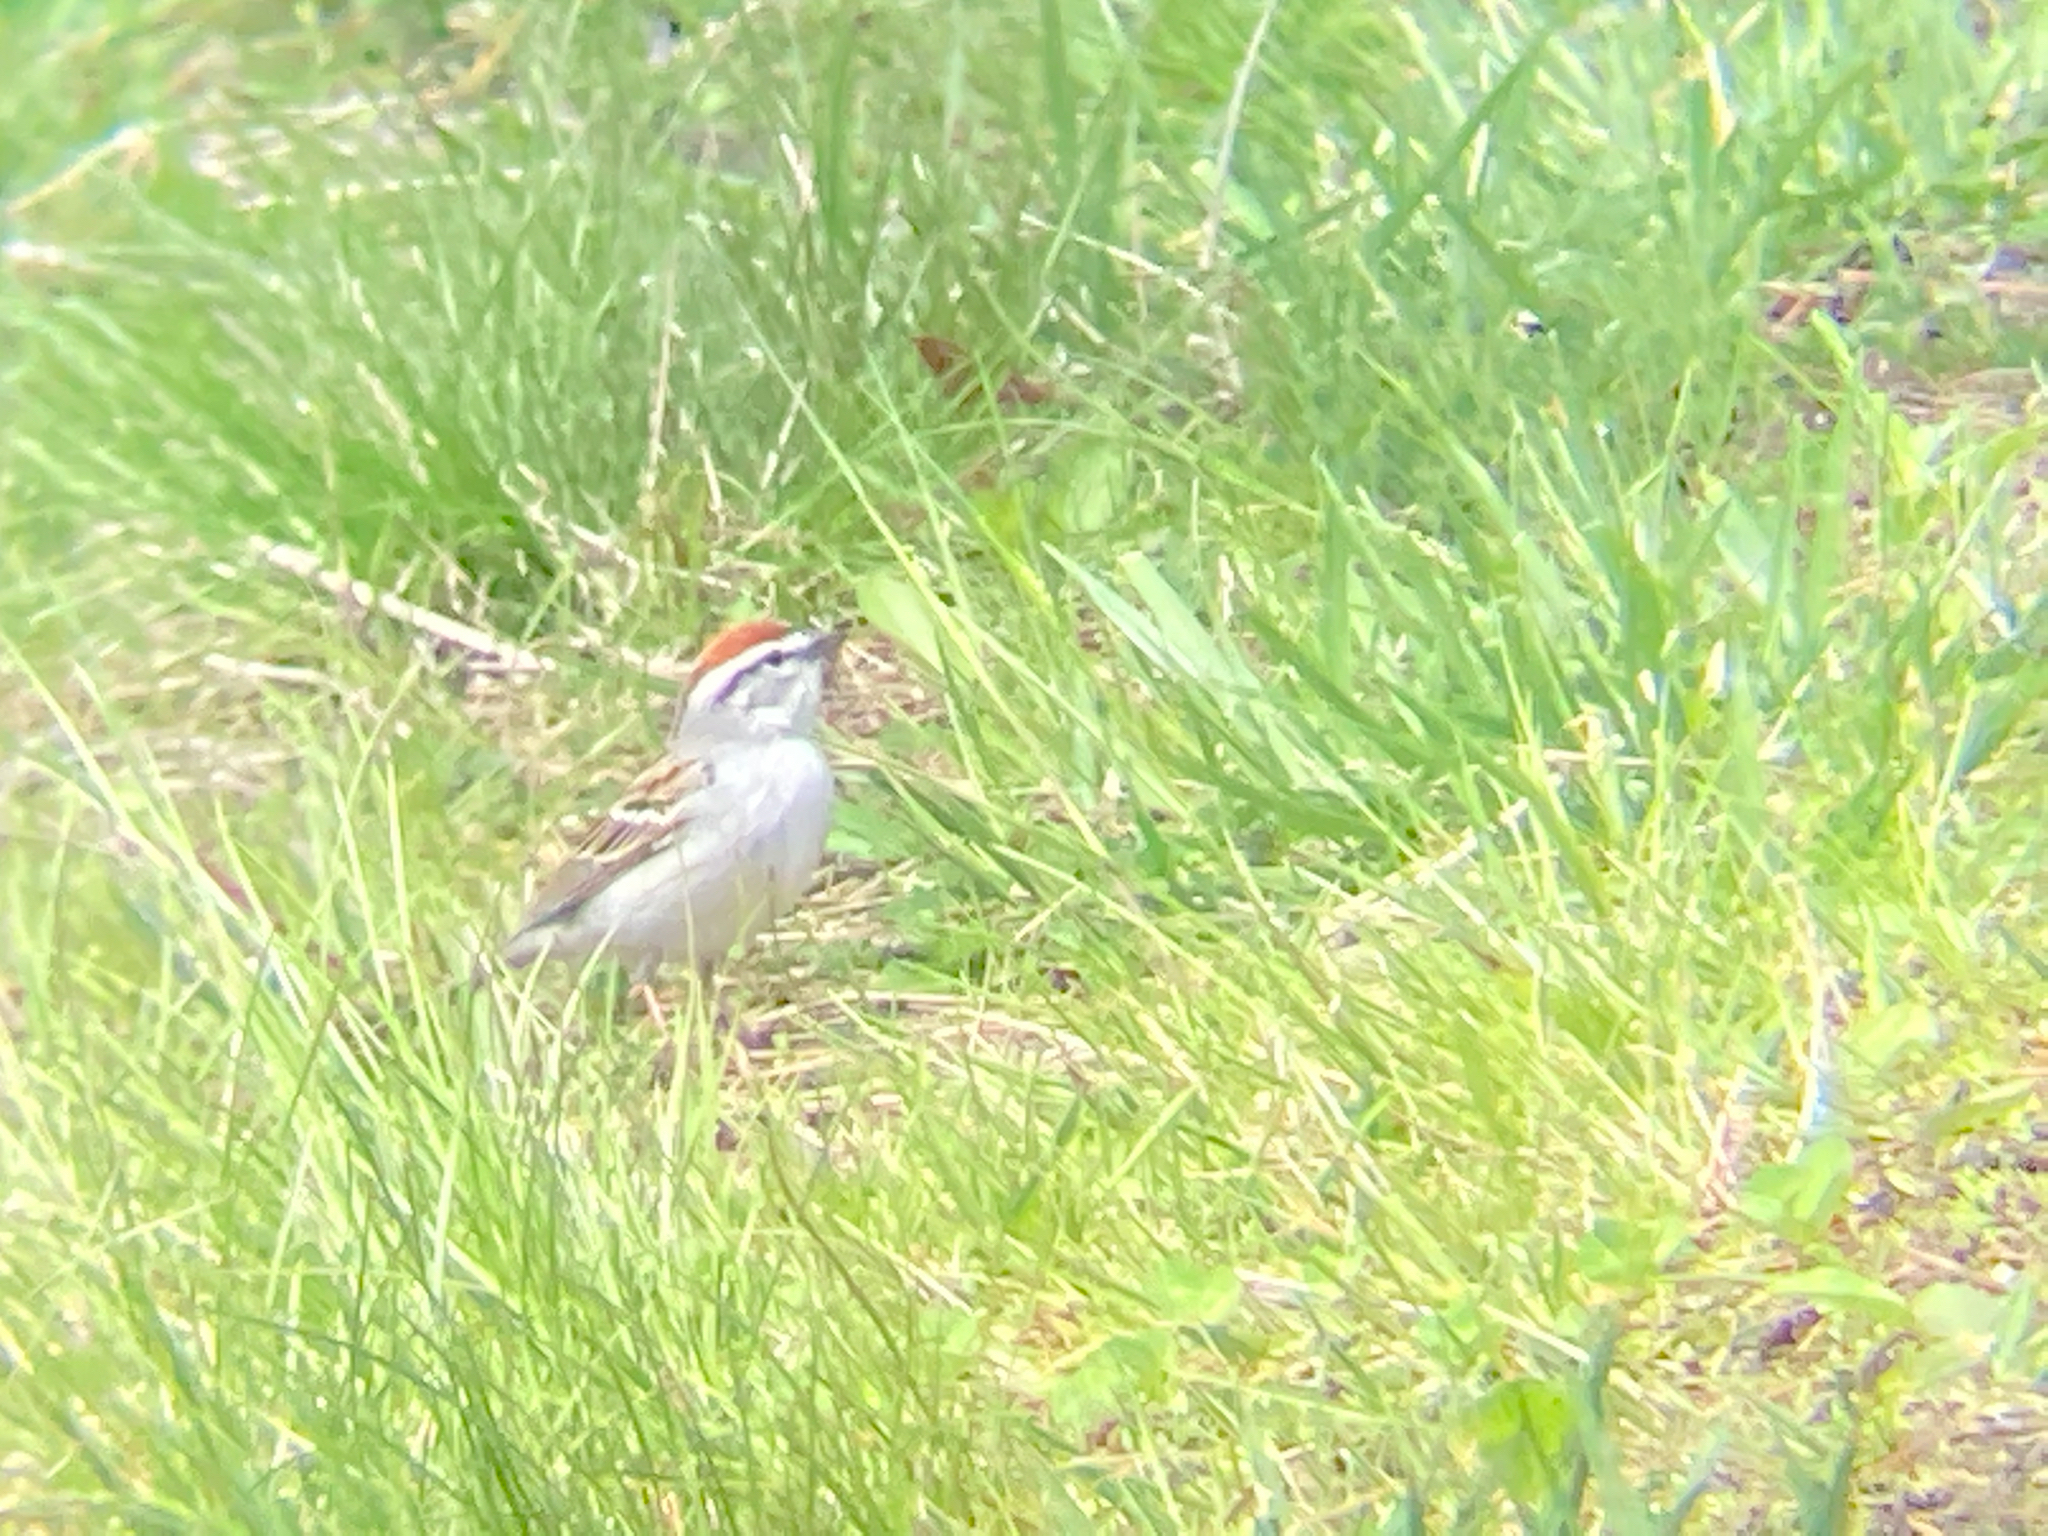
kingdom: Animalia
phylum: Chordata
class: Aves
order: Passeriformes
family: Passerellidae
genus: Spizella
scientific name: Spizella passerina
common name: Chipping sparrow
